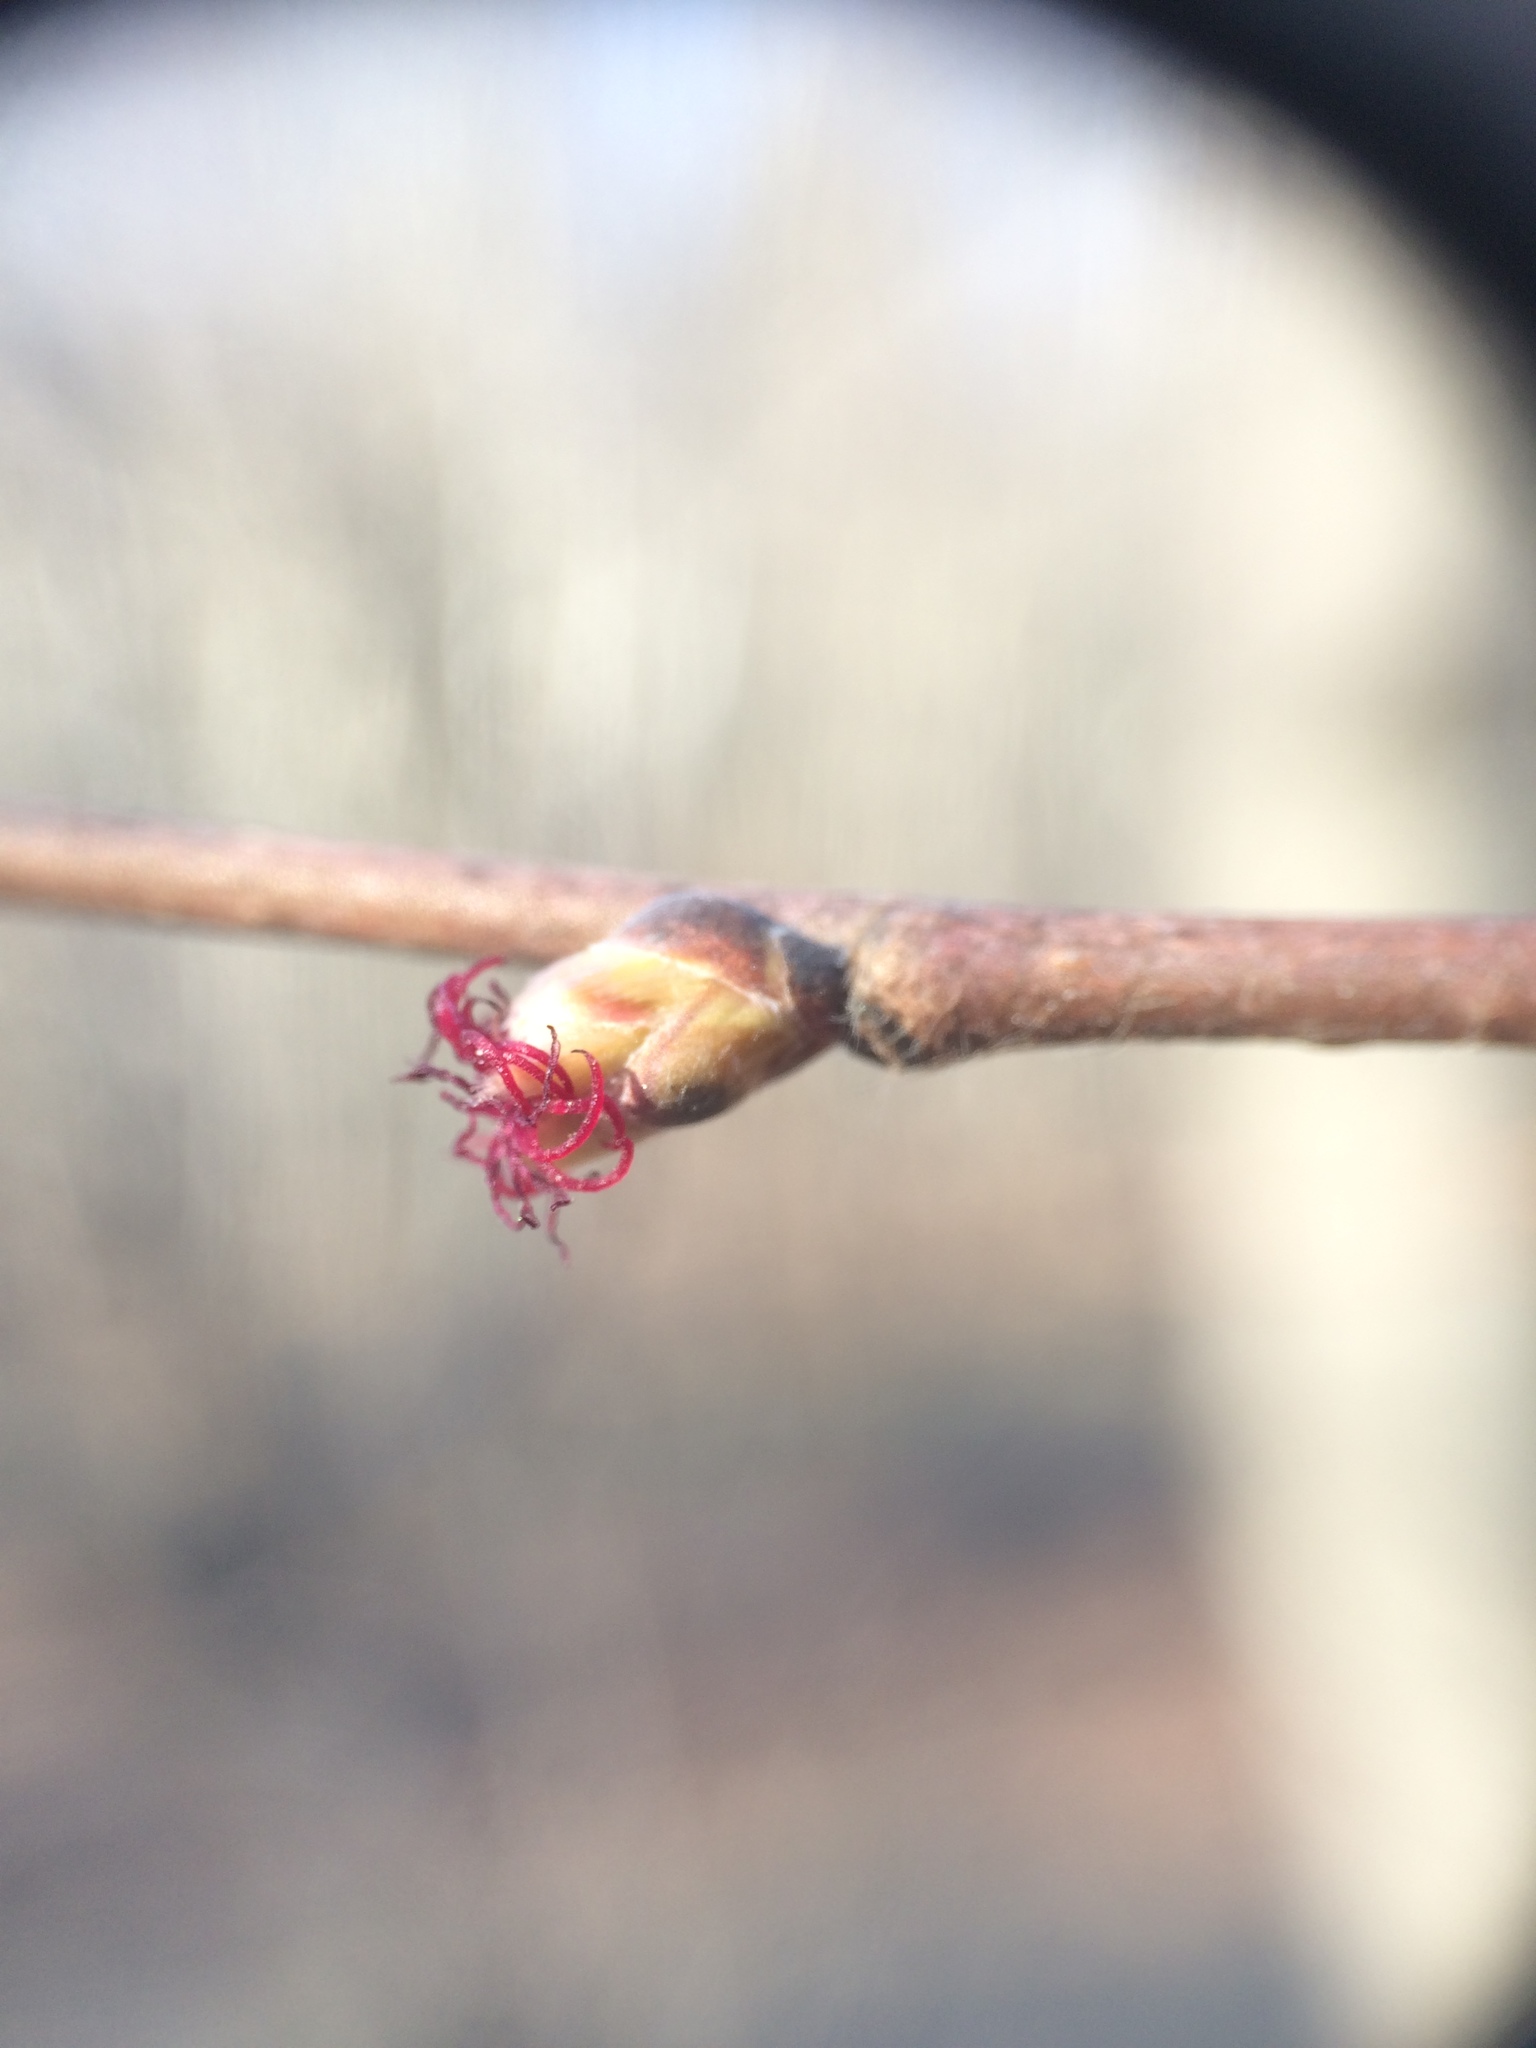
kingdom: Plantae
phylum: Tracheophyta
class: Magnoliopsida
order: Fagales
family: Betulaceae
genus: Corylus
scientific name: Corylus cornuta
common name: Beaked hazel
